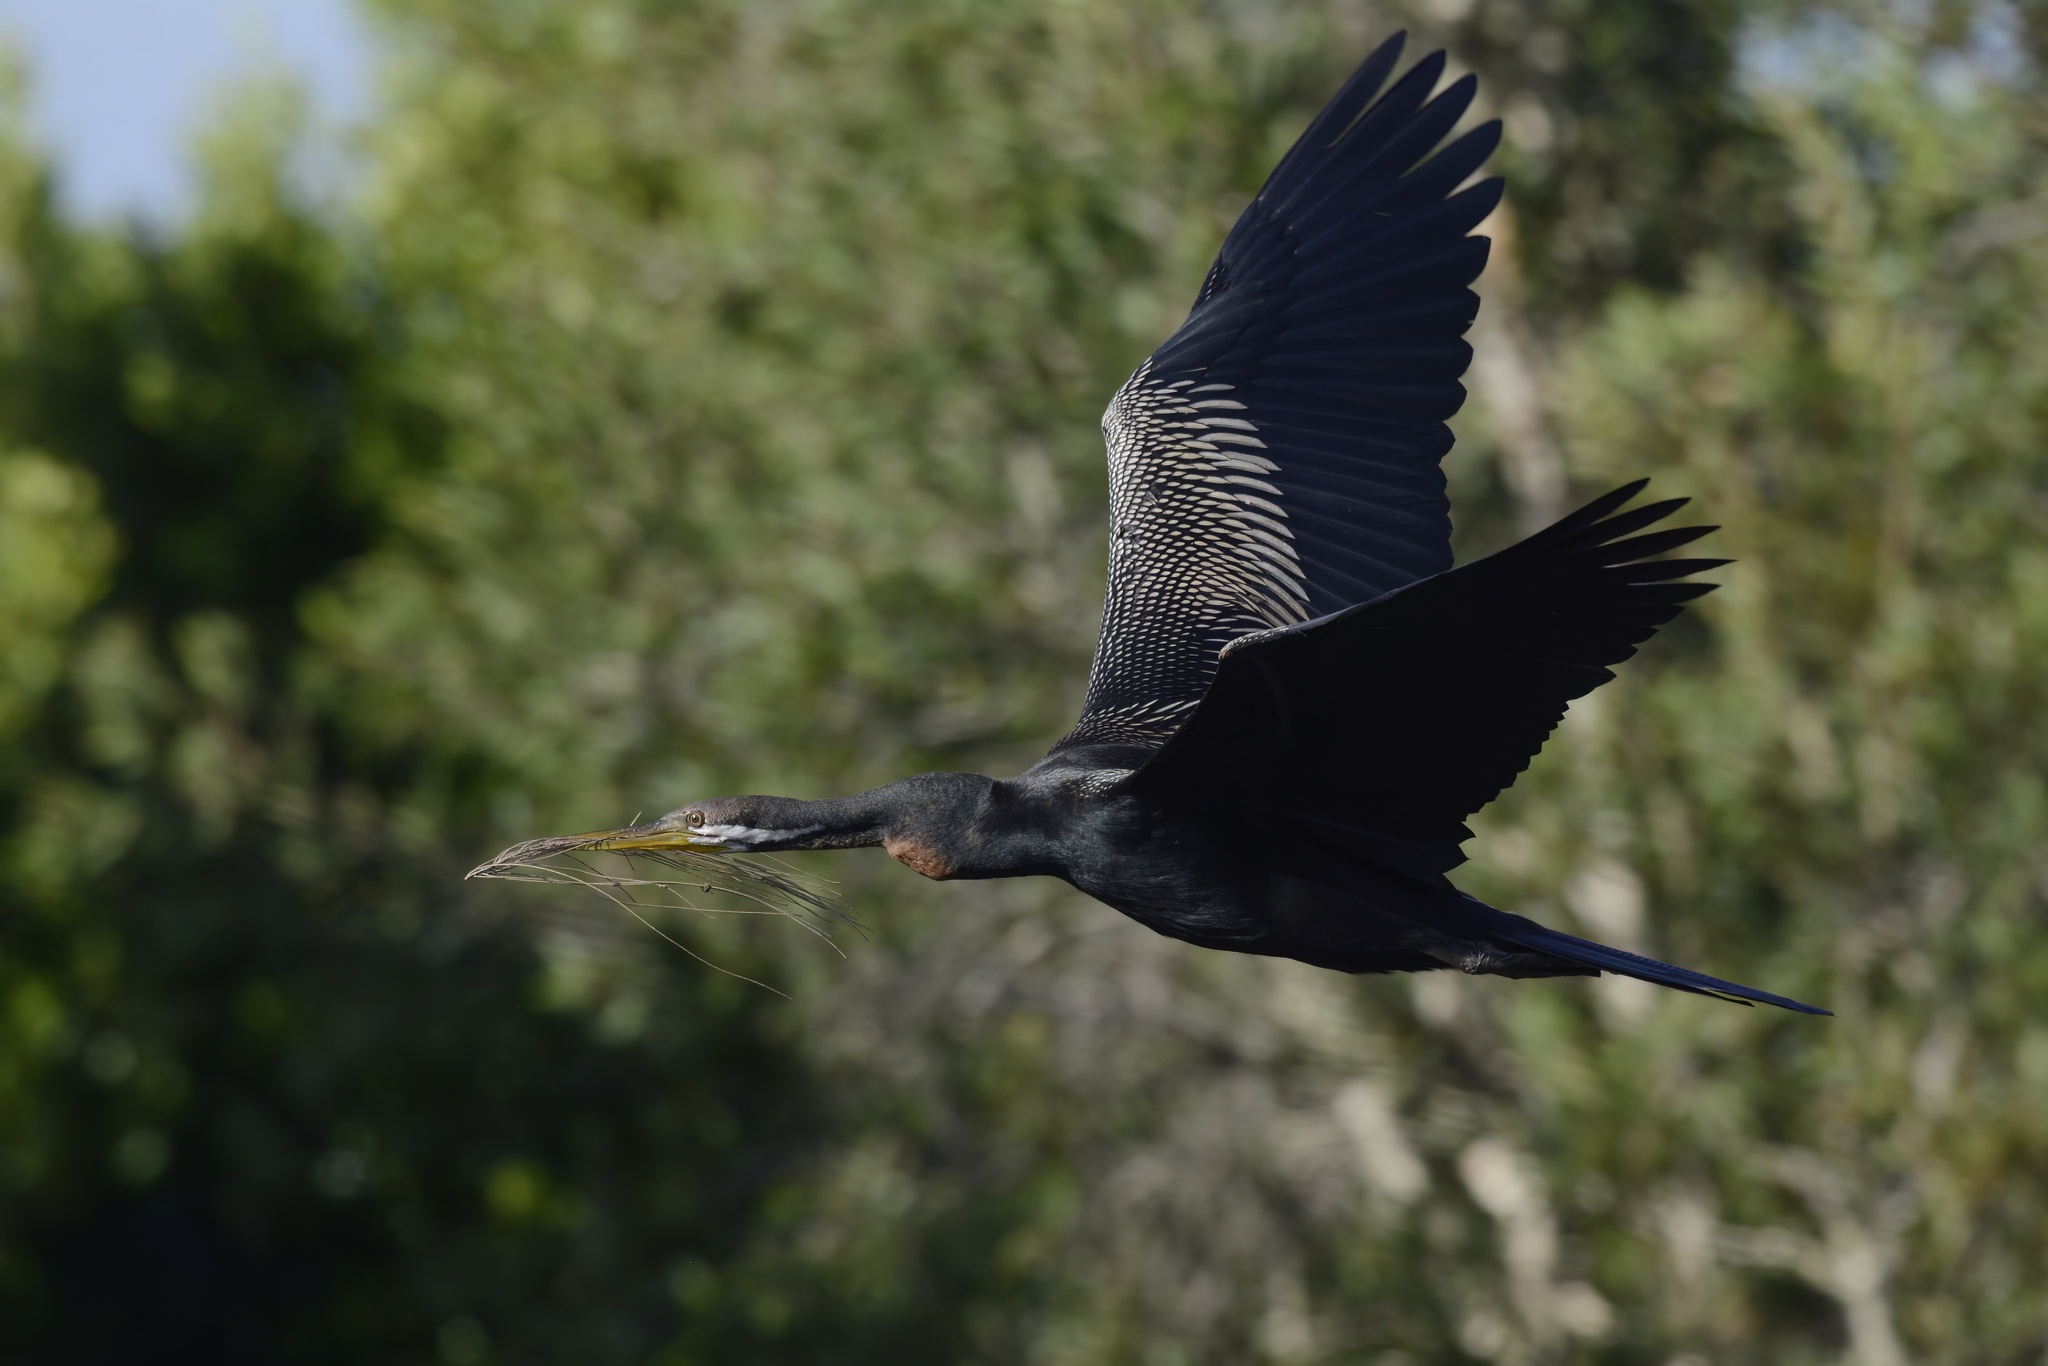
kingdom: Animalia
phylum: Chordata
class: Aves
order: Suliformes
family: Anhingidae
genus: Anhinga
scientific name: Anhinga novaehollandiae
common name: Australasian darter
